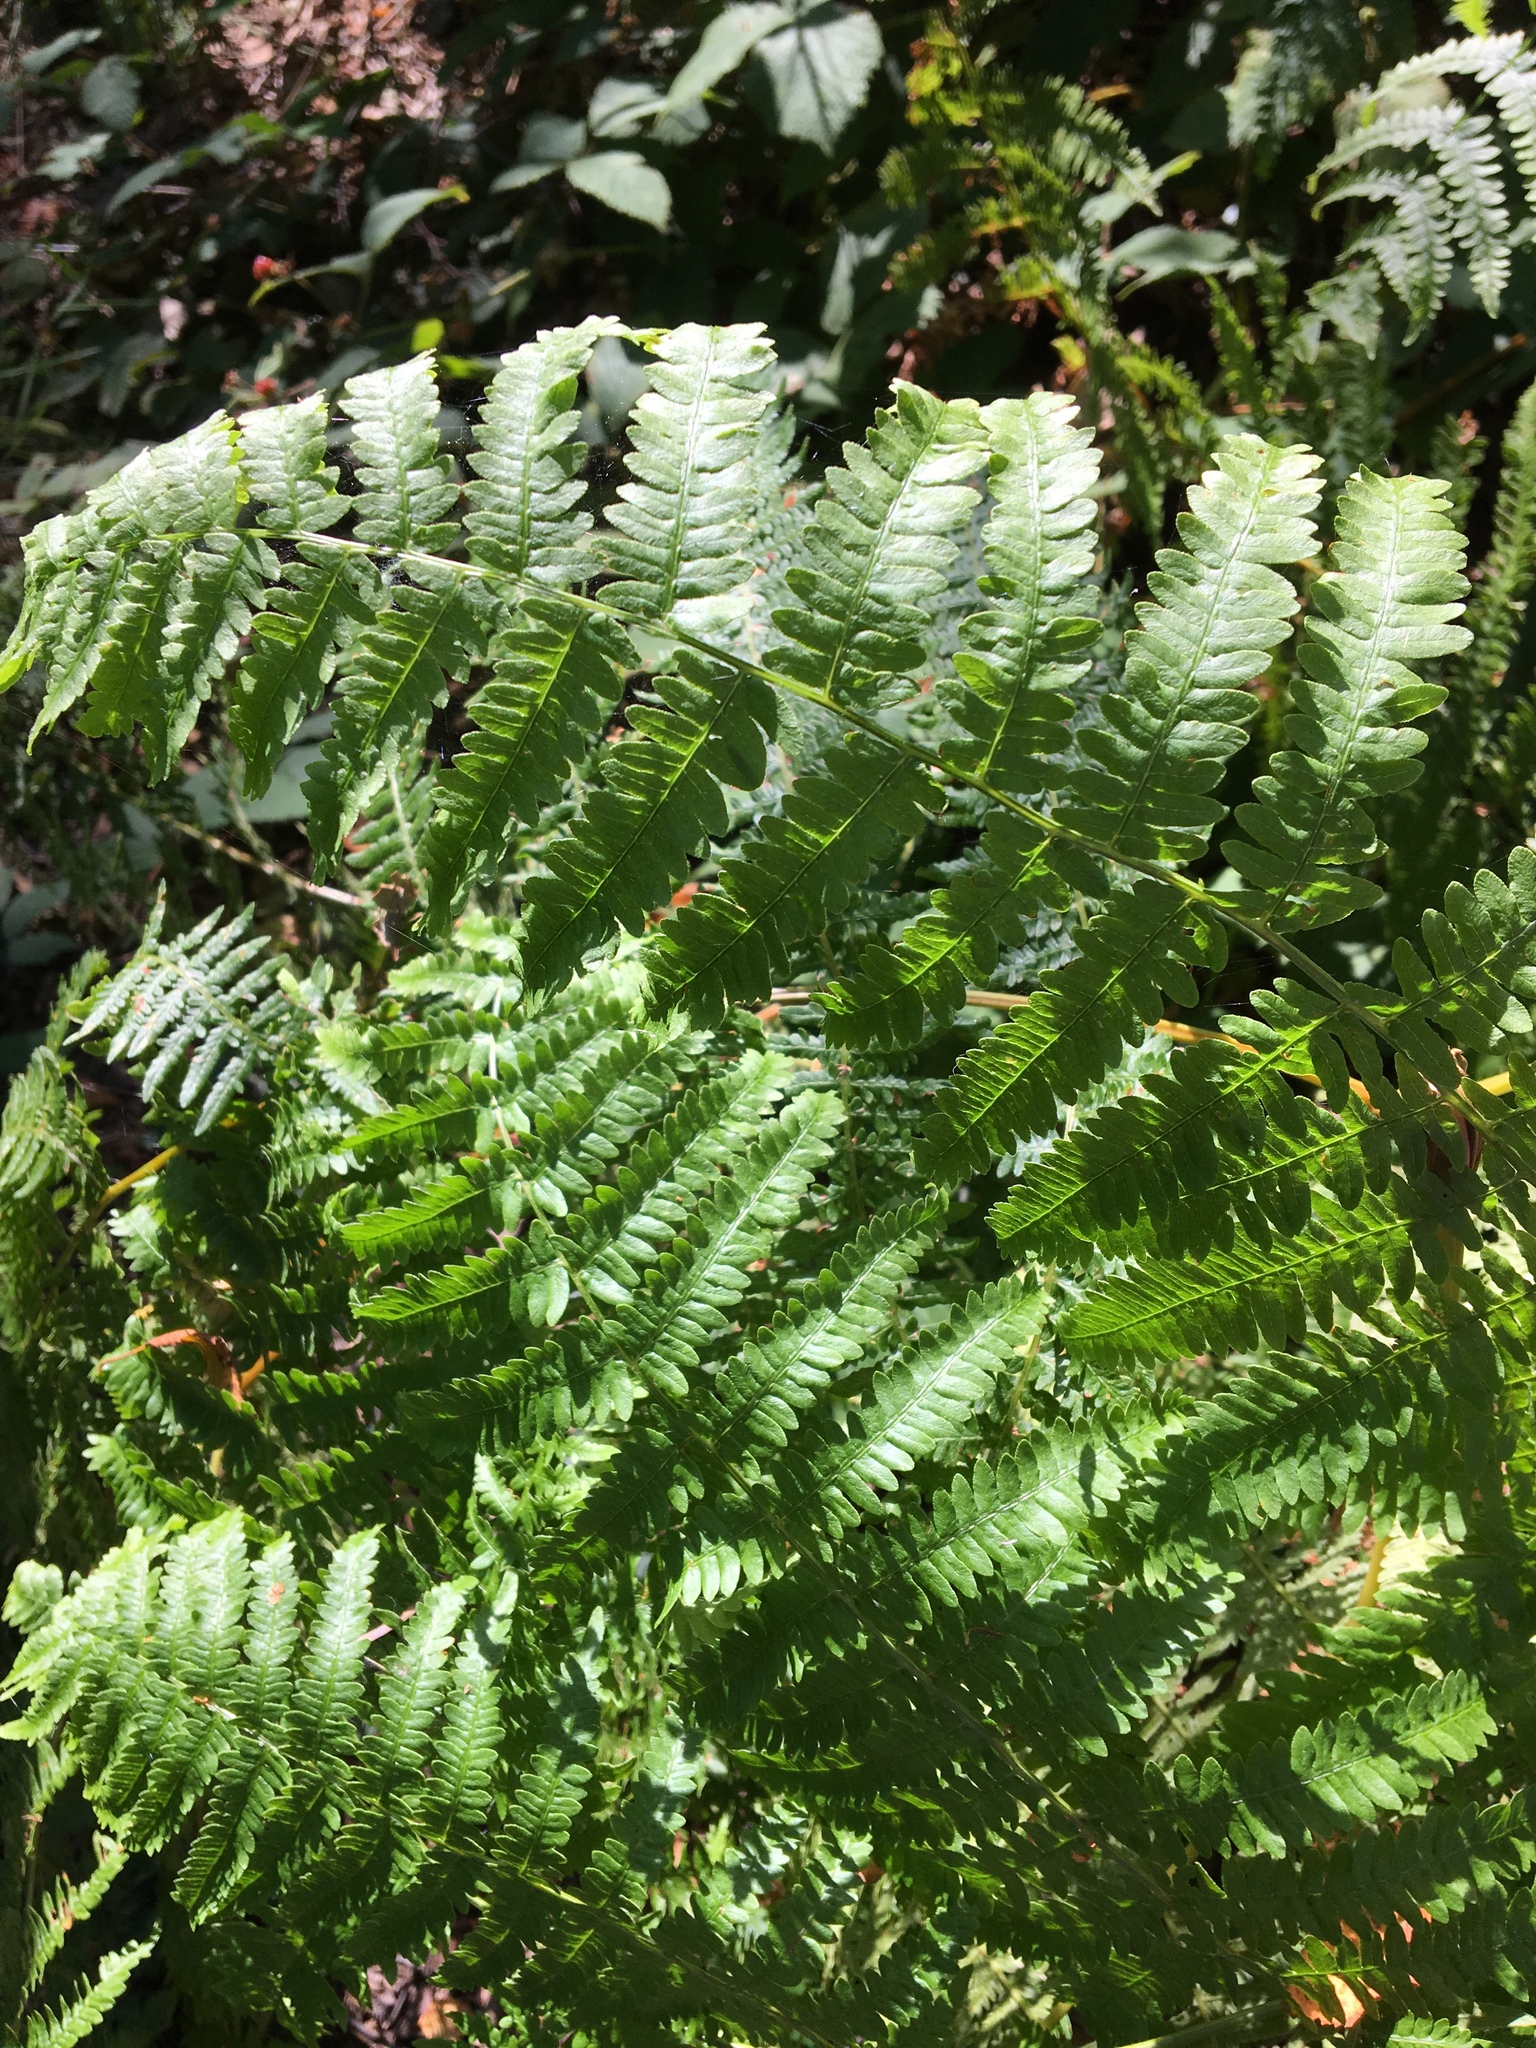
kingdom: Plantae
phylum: Tracheophyta
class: Polypodiopsida
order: Polypodiales
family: Dennstaedtiaceae
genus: Pteridium
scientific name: Pteridium aquilinum
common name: Bracken
